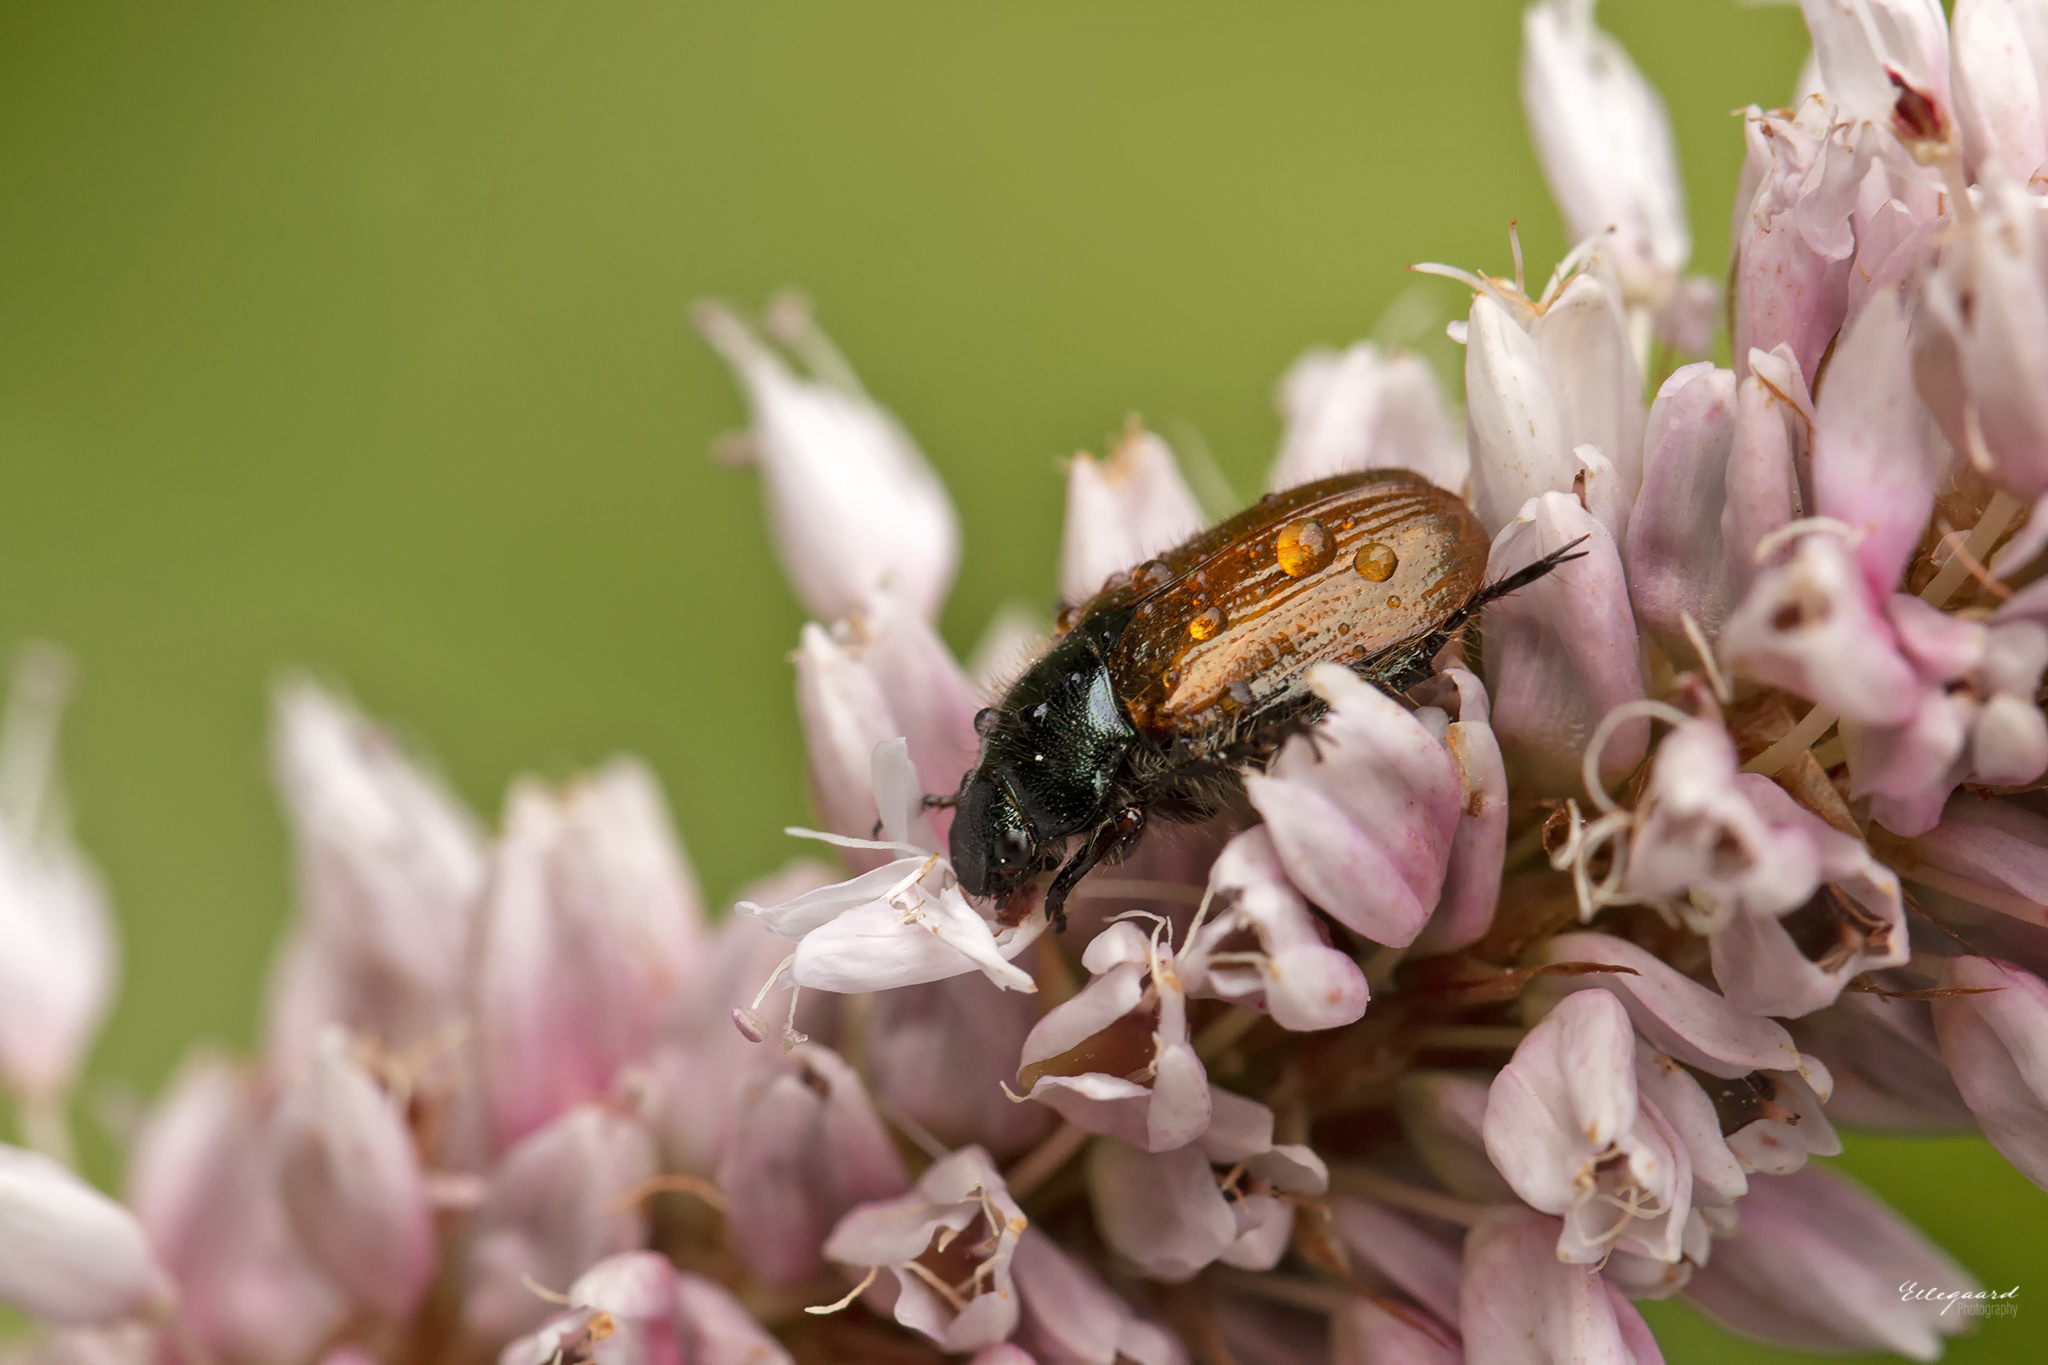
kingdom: Animalia
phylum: Arthropoda
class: Insecta
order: Coleoptera
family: Scarabaeidae
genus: Phyllopertha
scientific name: Phyllopertha horticola
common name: Garden chafer
